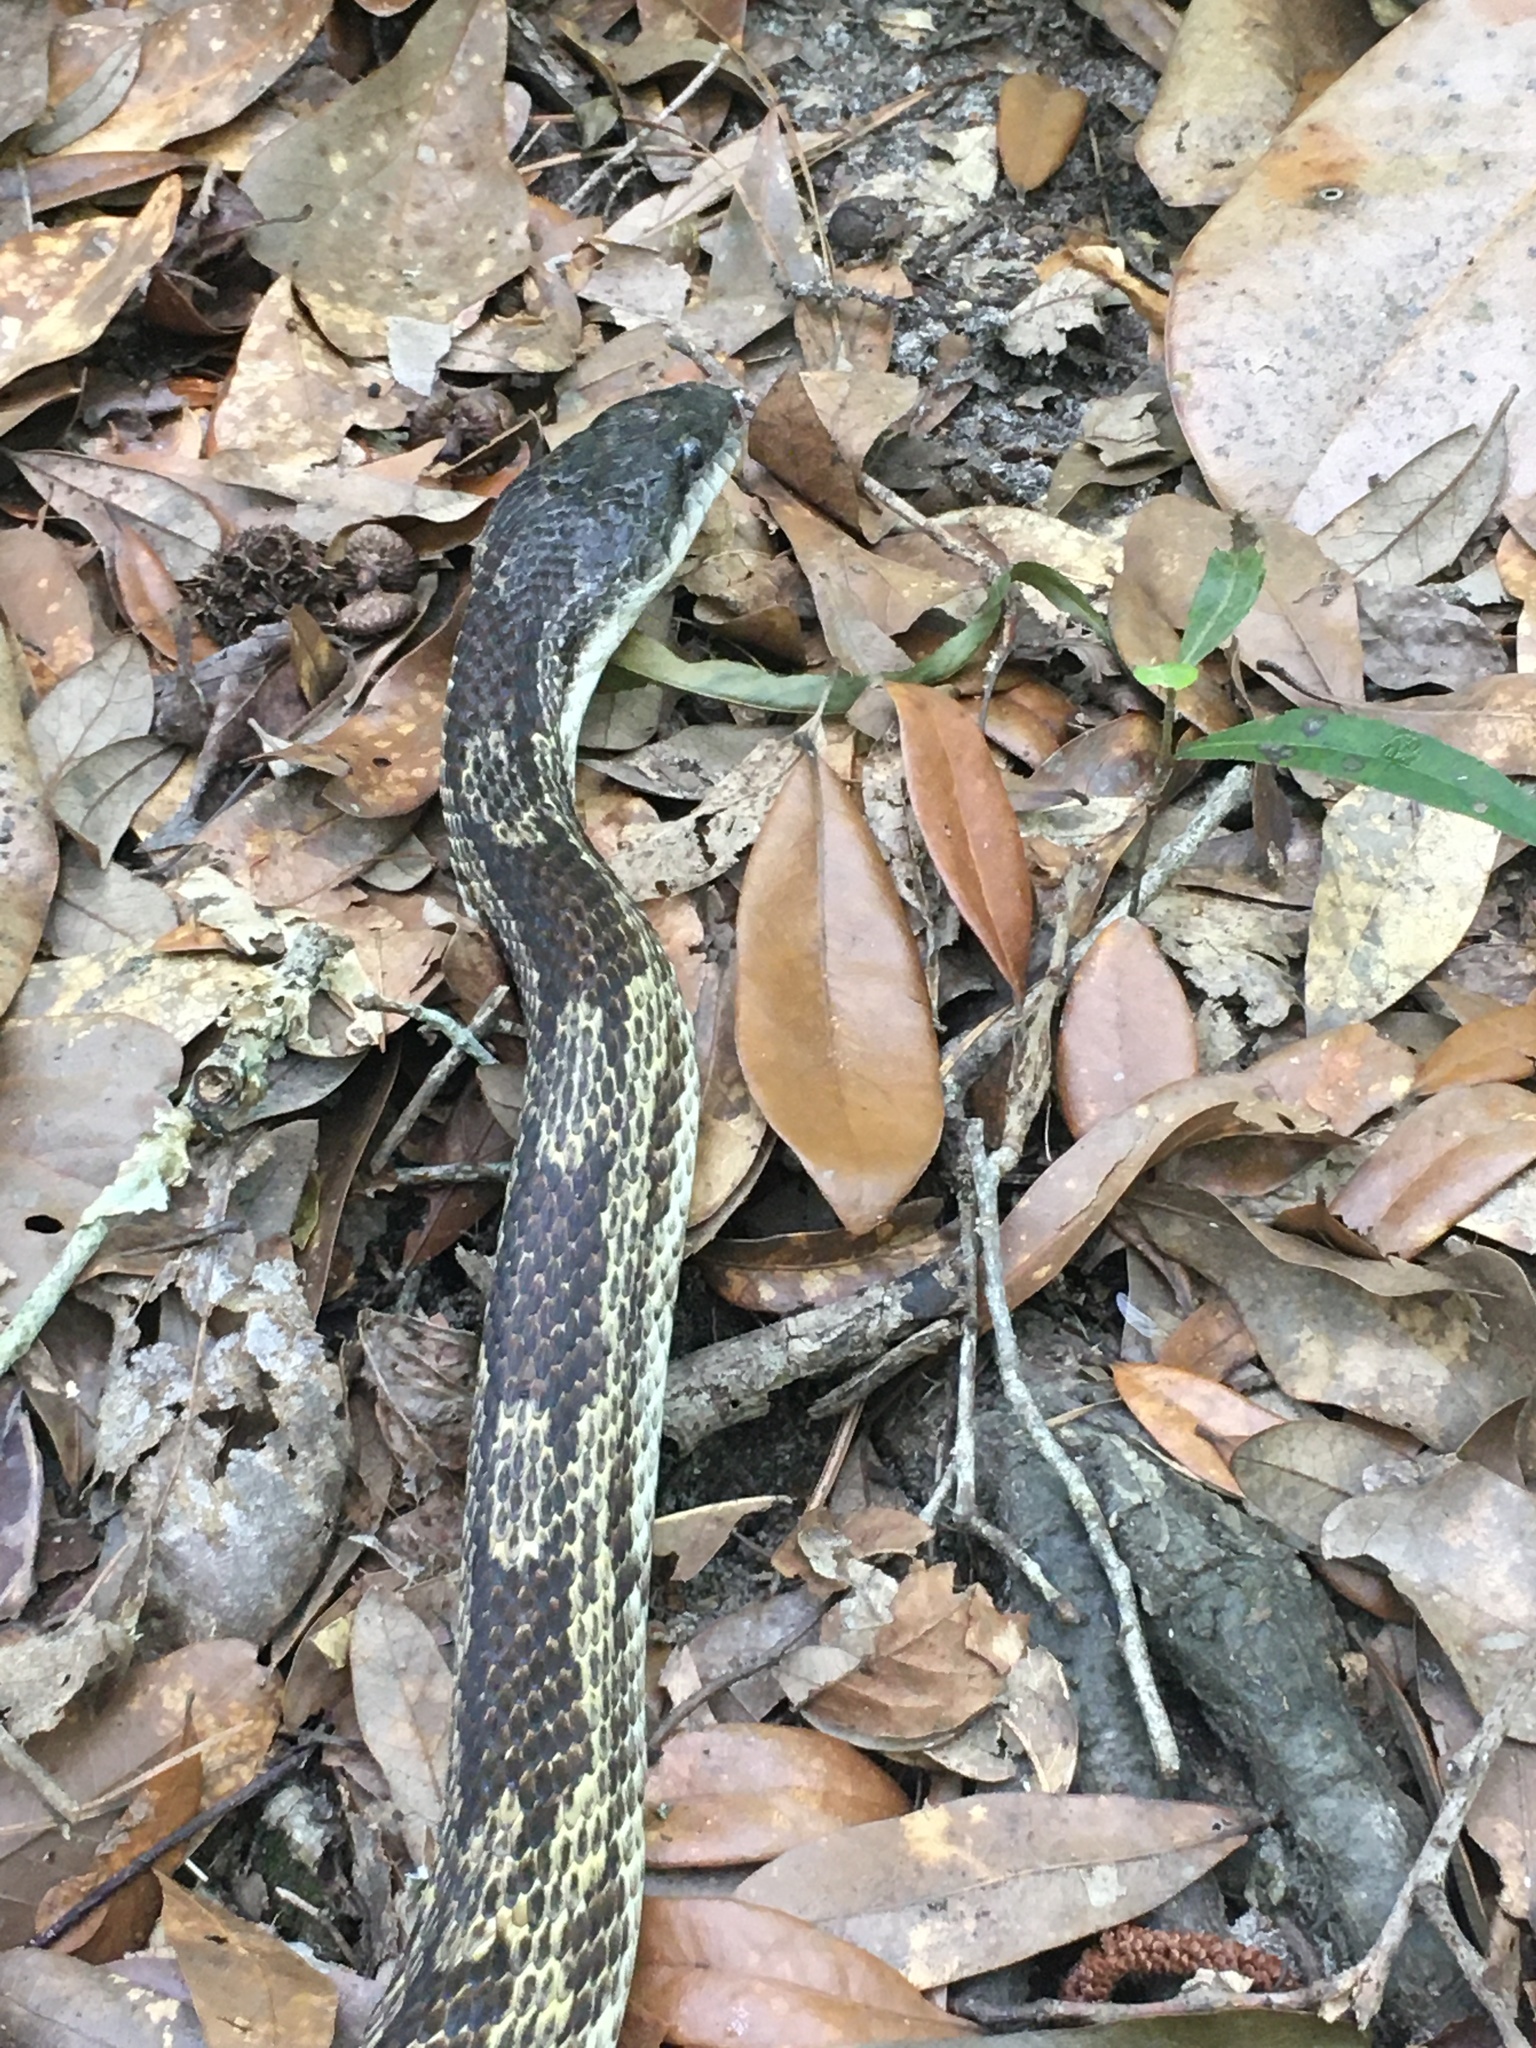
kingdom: Animalia
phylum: Chordata
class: Squamata
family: Colubridae
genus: Pantherophis
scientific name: Pantherophis spiloides
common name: Gray rat snake
